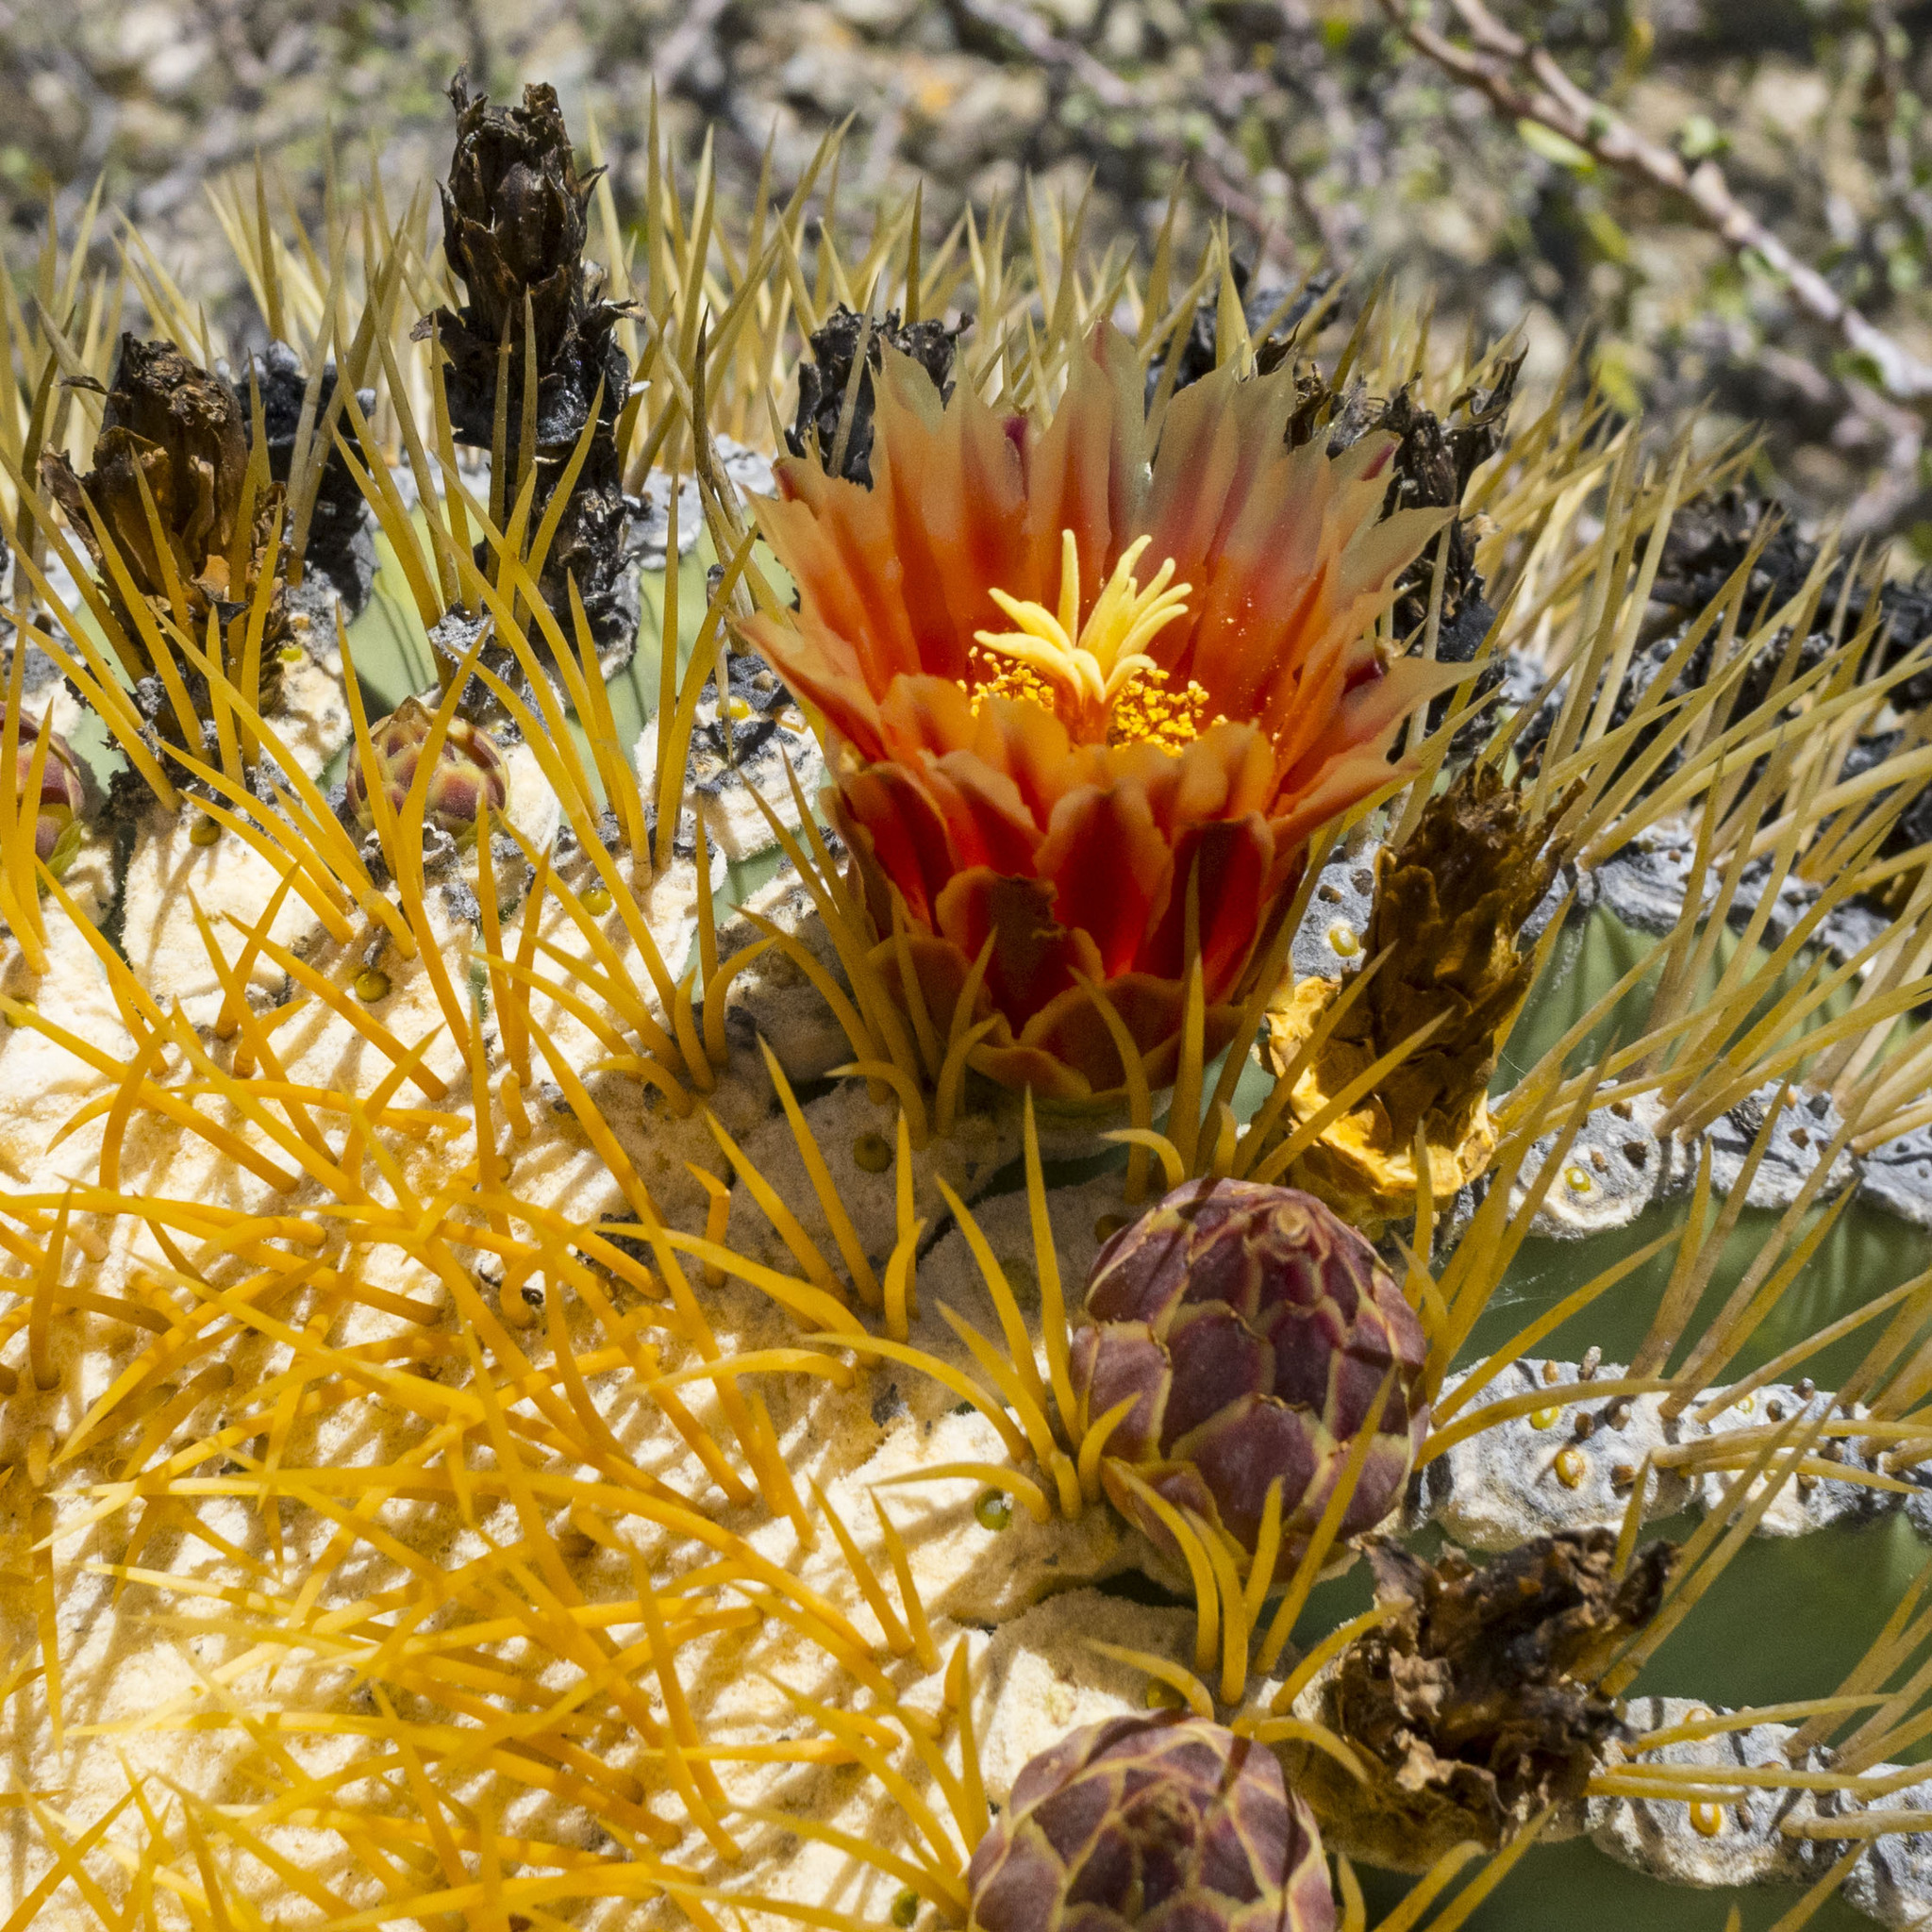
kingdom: Plantae
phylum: Tracheophyta
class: Magnoliopsida
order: Caryophyllales
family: Cactaceae
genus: Ferocactus
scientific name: Ferocactus diguetii
